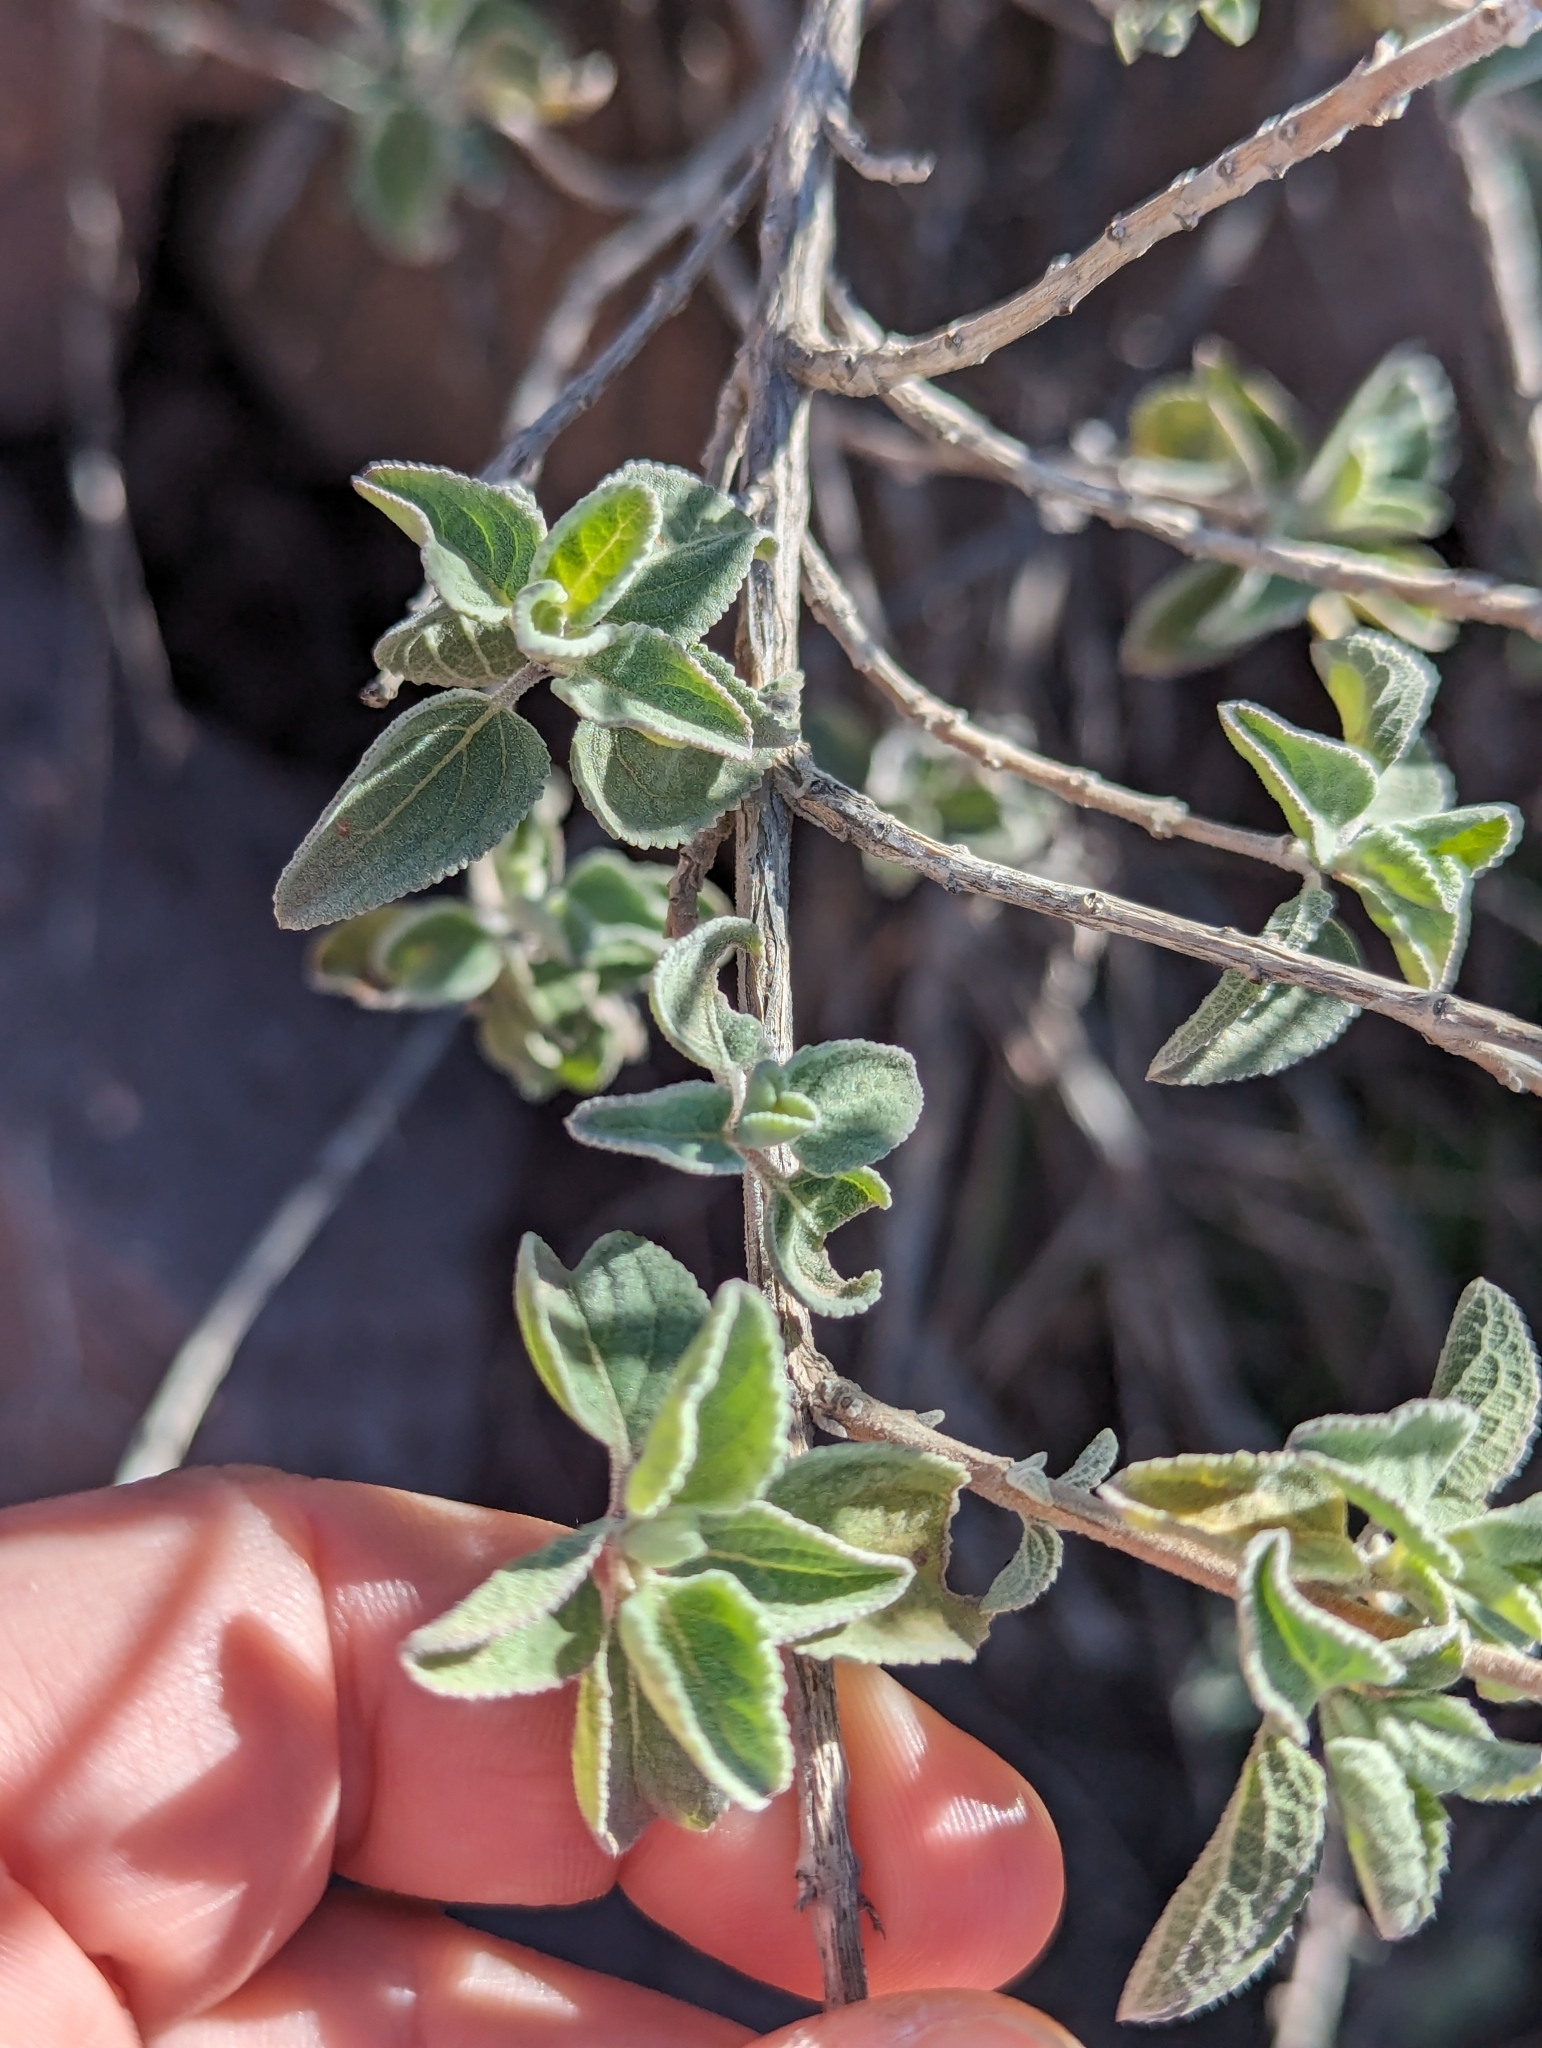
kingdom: Plantae
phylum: Tracheophyta
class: Magnoliopsida
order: Lamiales
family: Lamiaceae
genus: Condea
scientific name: Condea emoryi
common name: Chia
